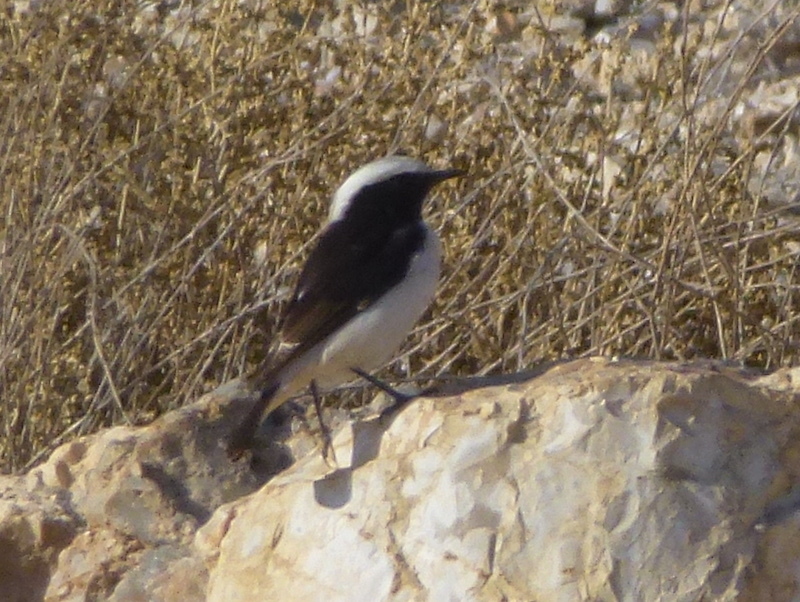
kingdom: Animalia
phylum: Chordata
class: Aves
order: Passeriformes
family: Muscicapidae
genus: Oenanthe
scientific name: Oenanthe lugens
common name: Mourning wheatear
